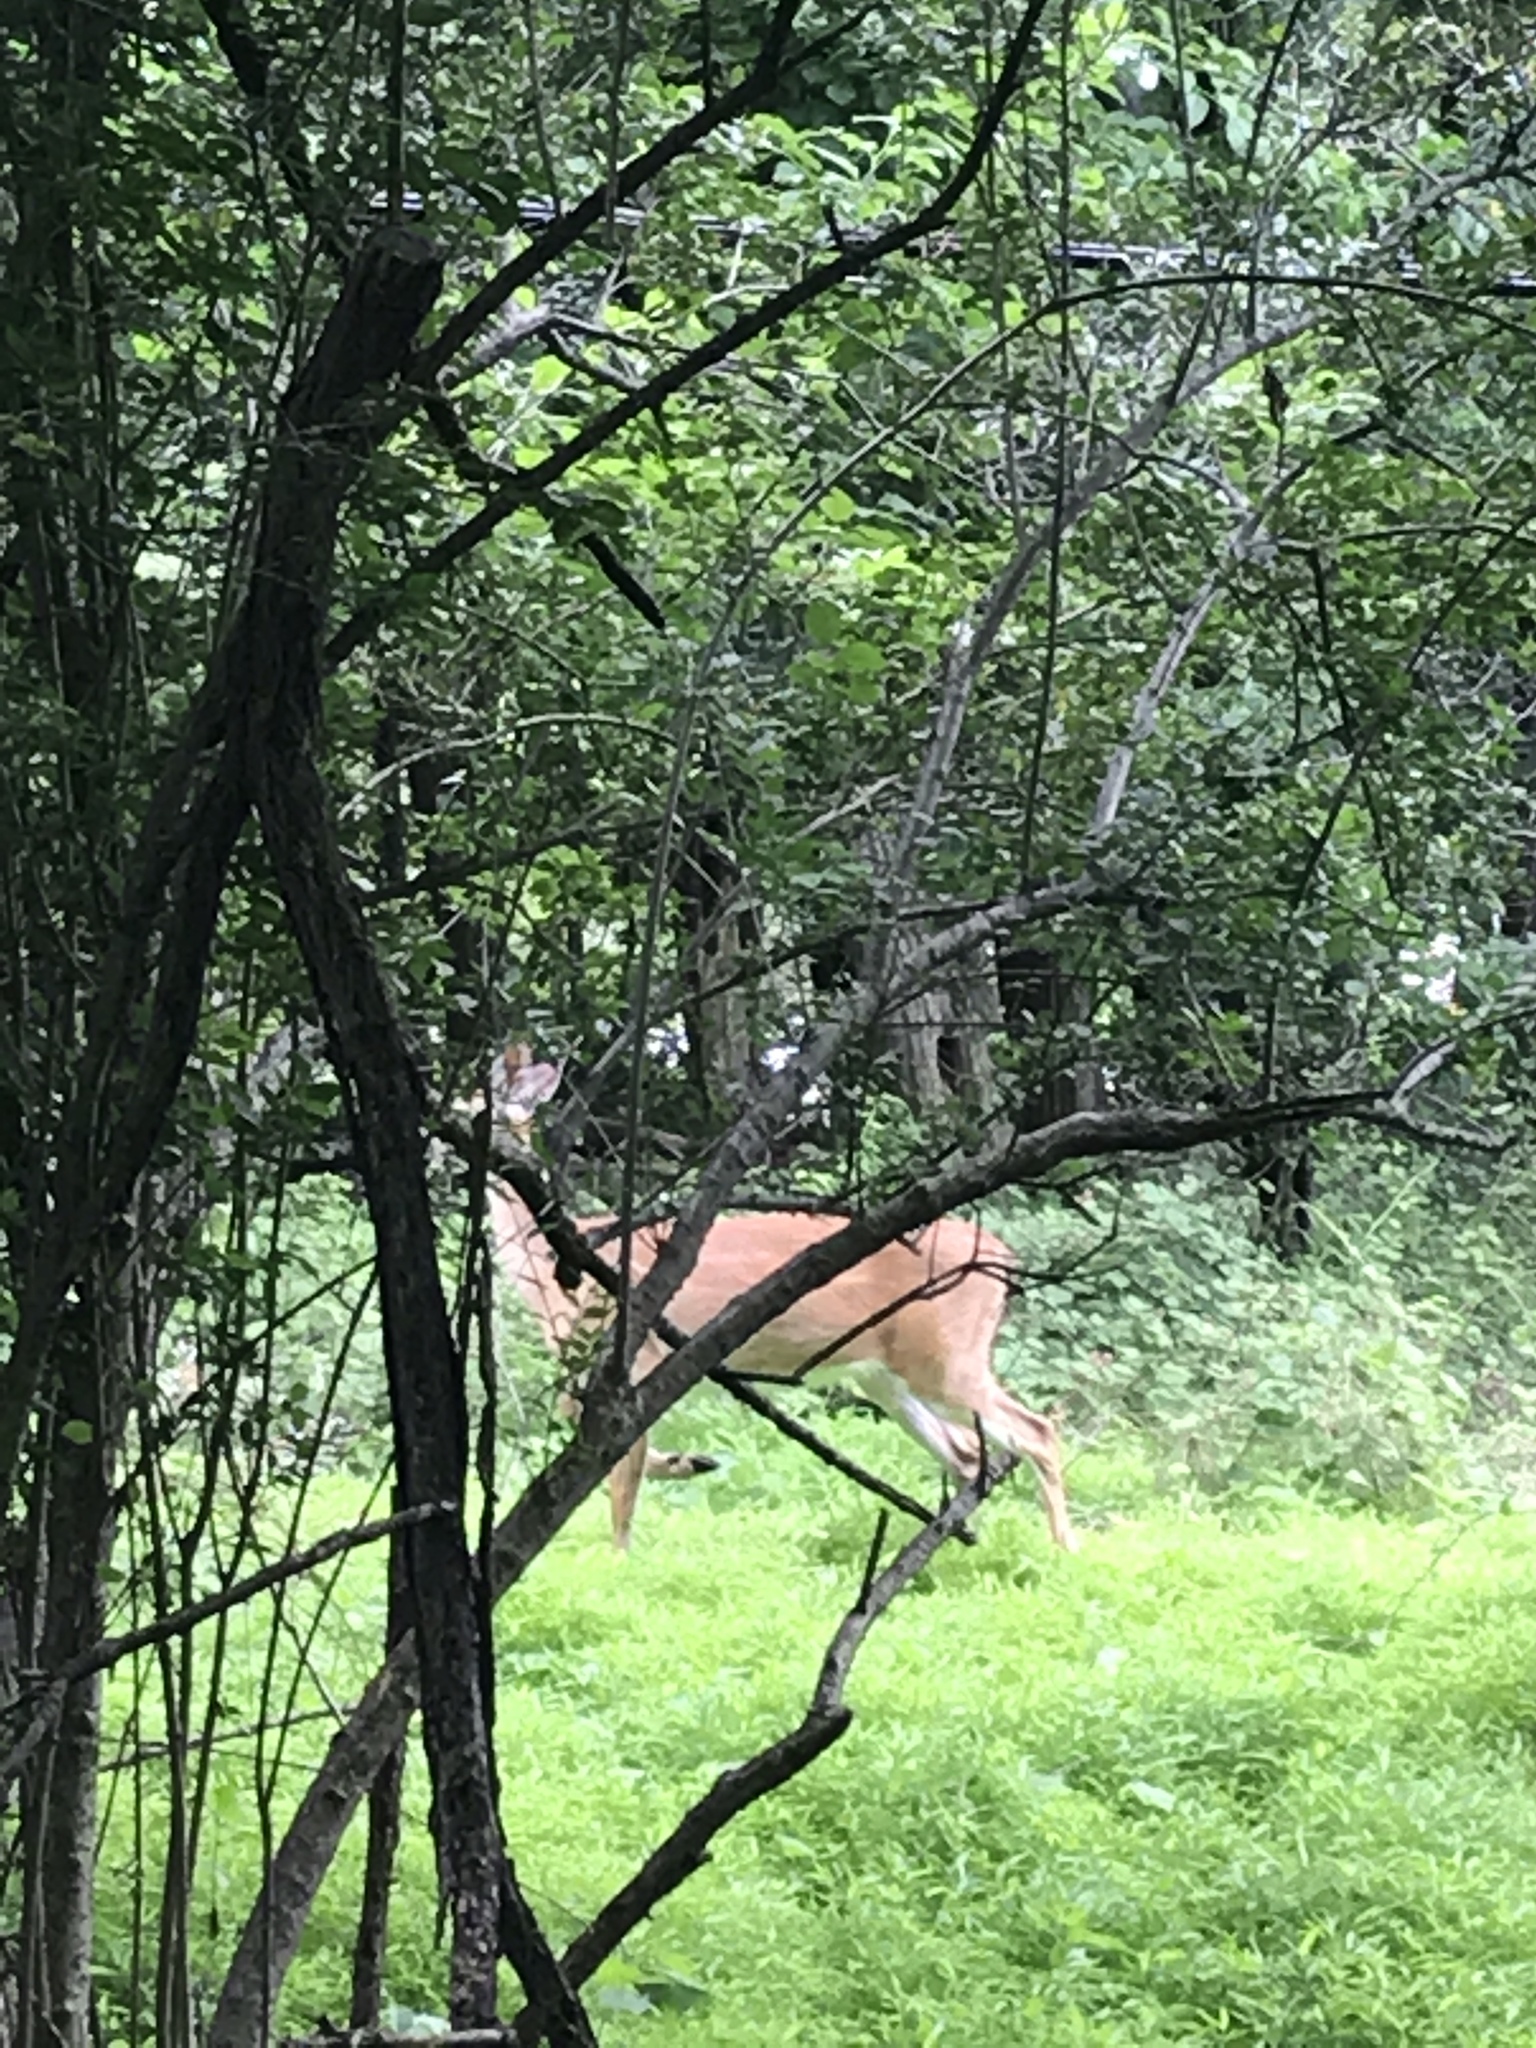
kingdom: Animalia
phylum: Chordata
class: Mammalia
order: Artiodactyla
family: Cervidae
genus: Odocoileus
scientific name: Odocoileus virginianus
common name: White-tailed deer
